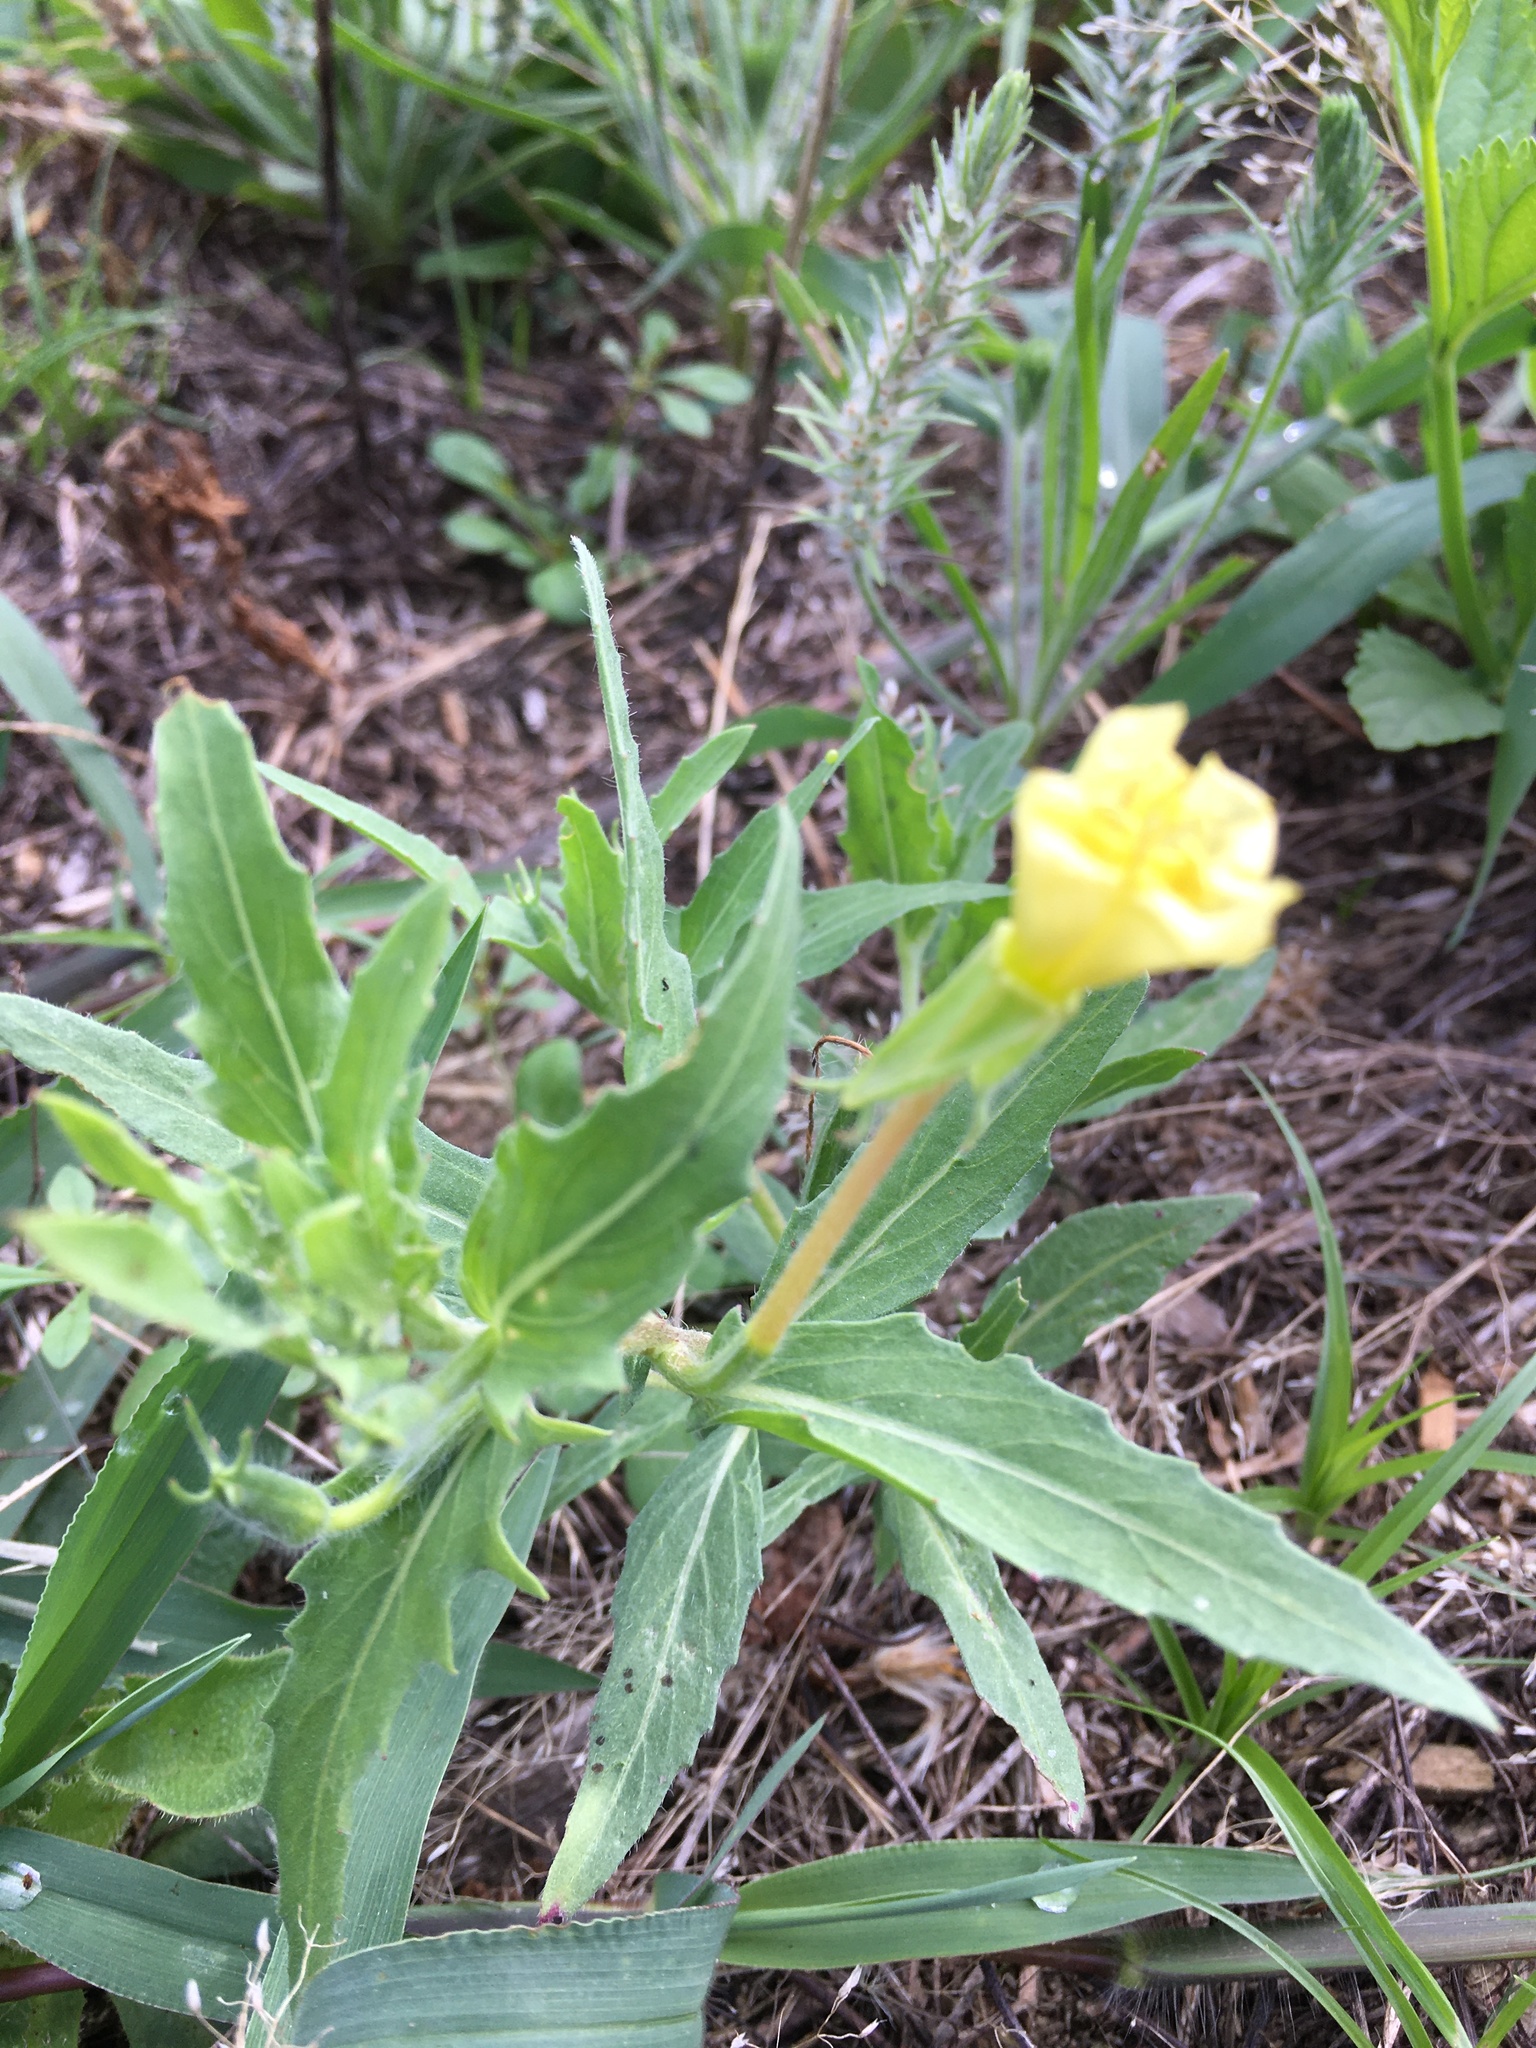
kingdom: Plantae
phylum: Tracheophyta
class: Magnoliopsida
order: Myrtales
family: Onagraceae
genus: Oenothera
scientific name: Oenothera laciniata
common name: Cut-leaved evening-primrose
